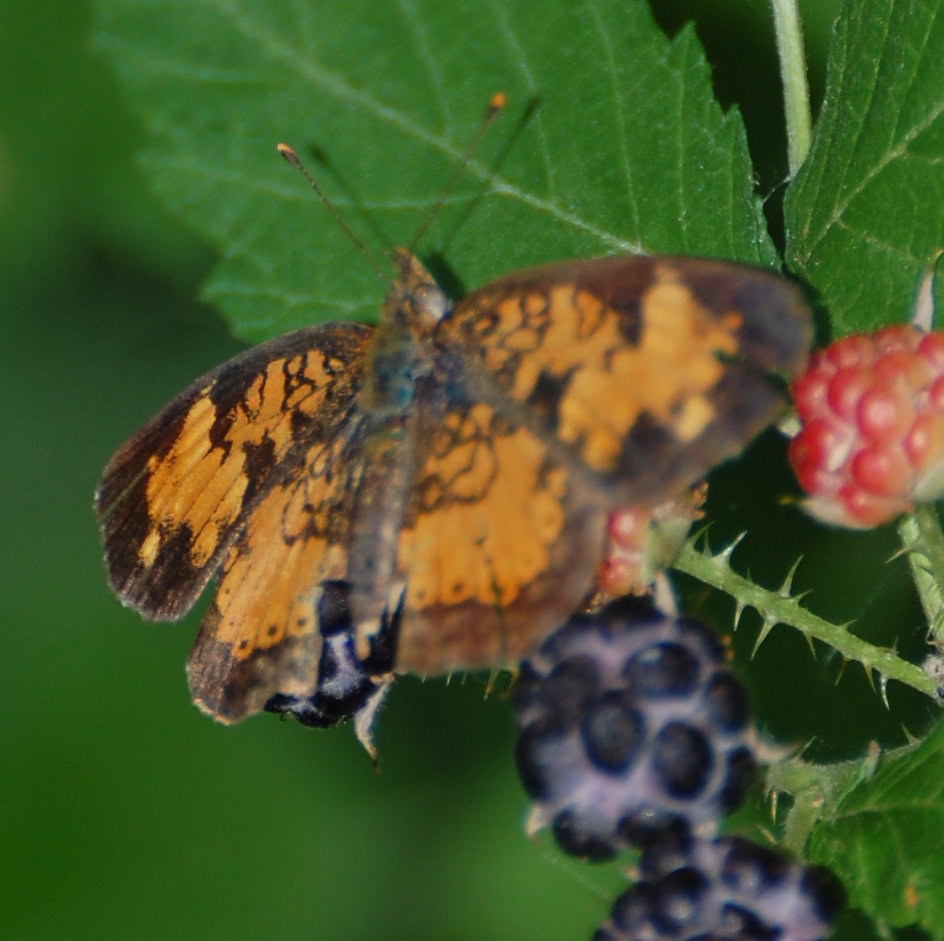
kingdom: Animalia
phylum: Arthropoda
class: Insecta
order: Lepidoptera
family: Nymphalidae
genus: Phyciodes
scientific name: Phyciodes tharos
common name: Pearl crescent
